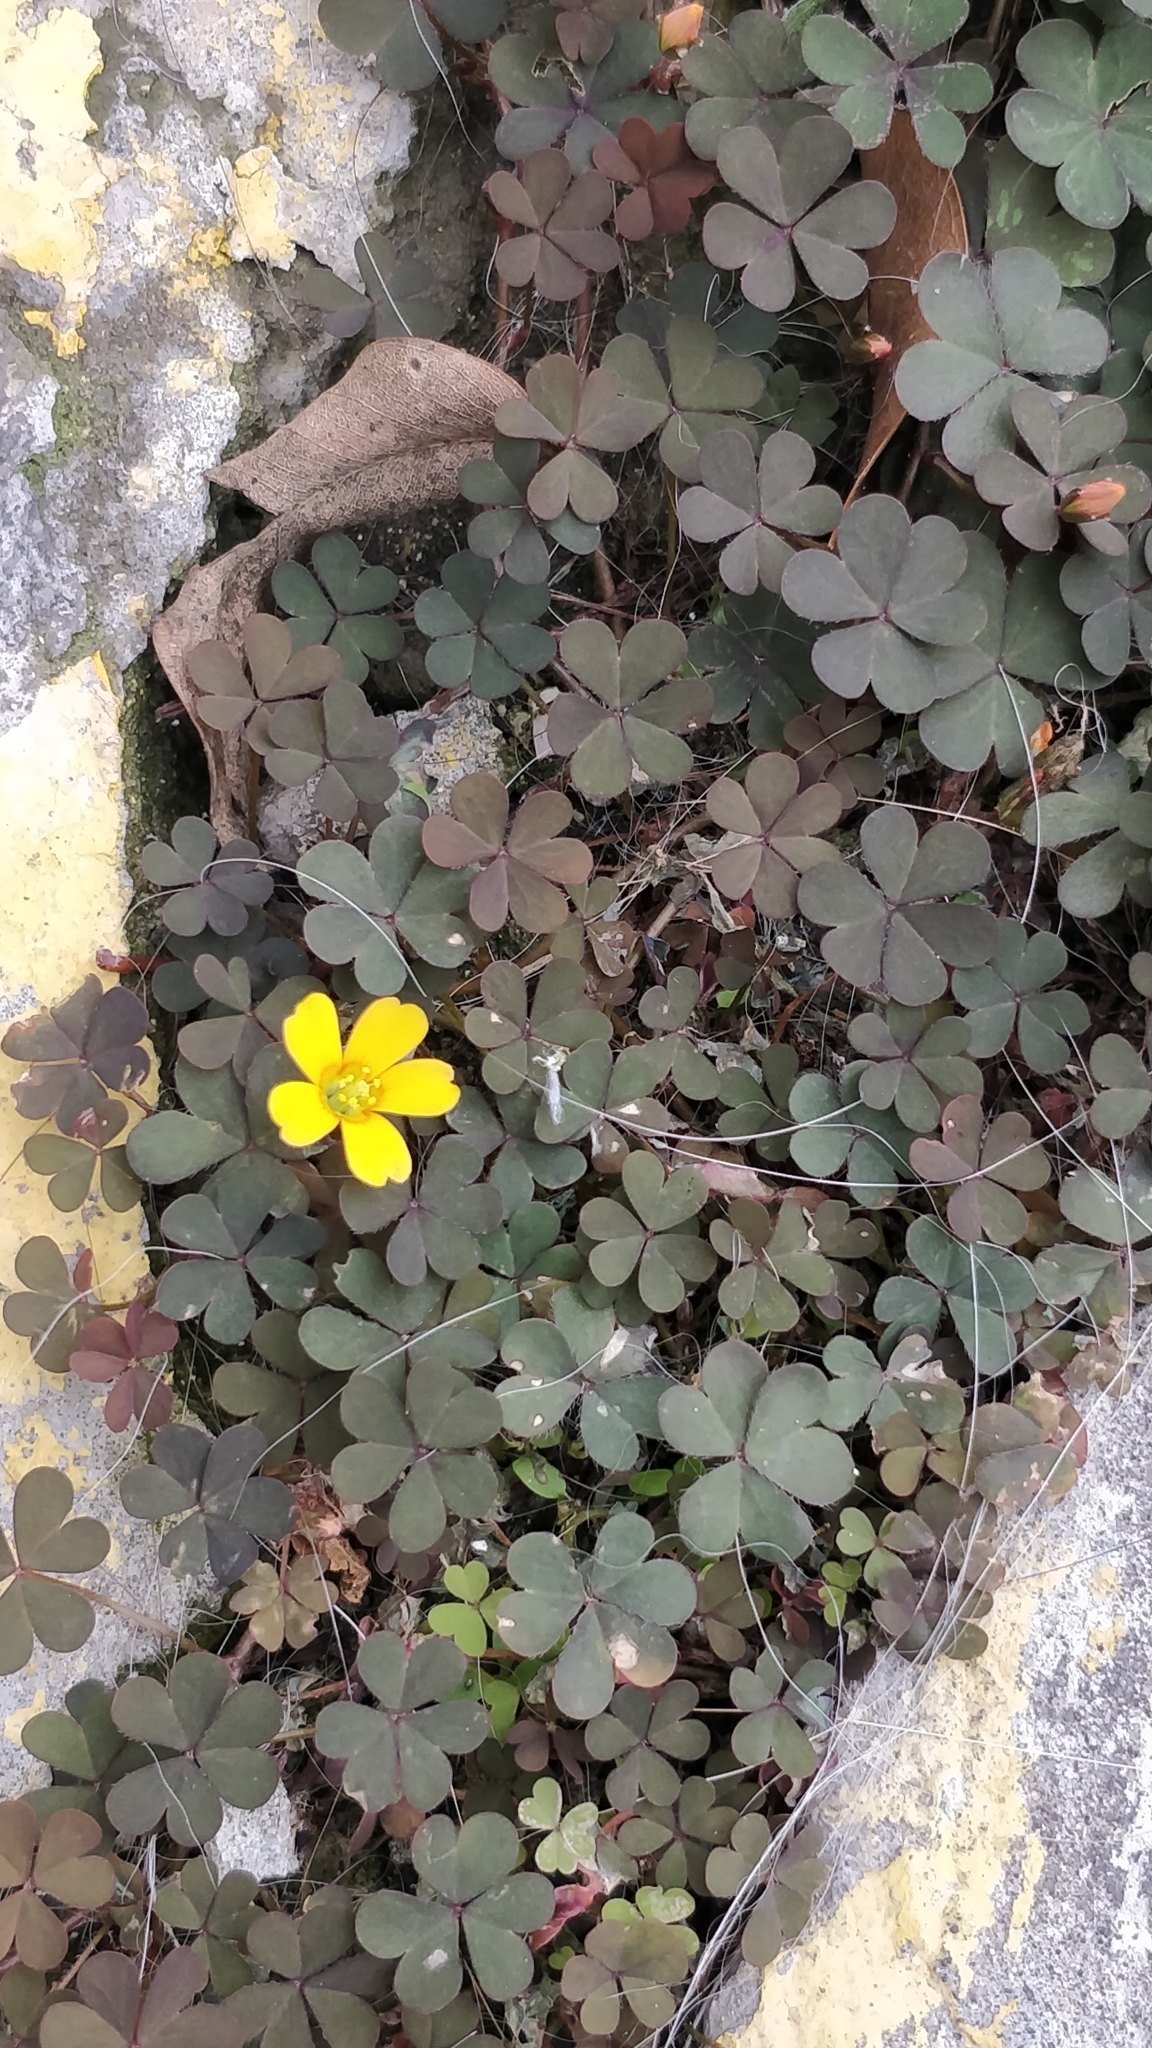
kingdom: Plantae
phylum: Tracheophyta
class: Magnoliopsida
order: Oxalidales
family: Oxalidaceae
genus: Oxalis
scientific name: Oxalis corniculata
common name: Procumbent yellow-sorrel
